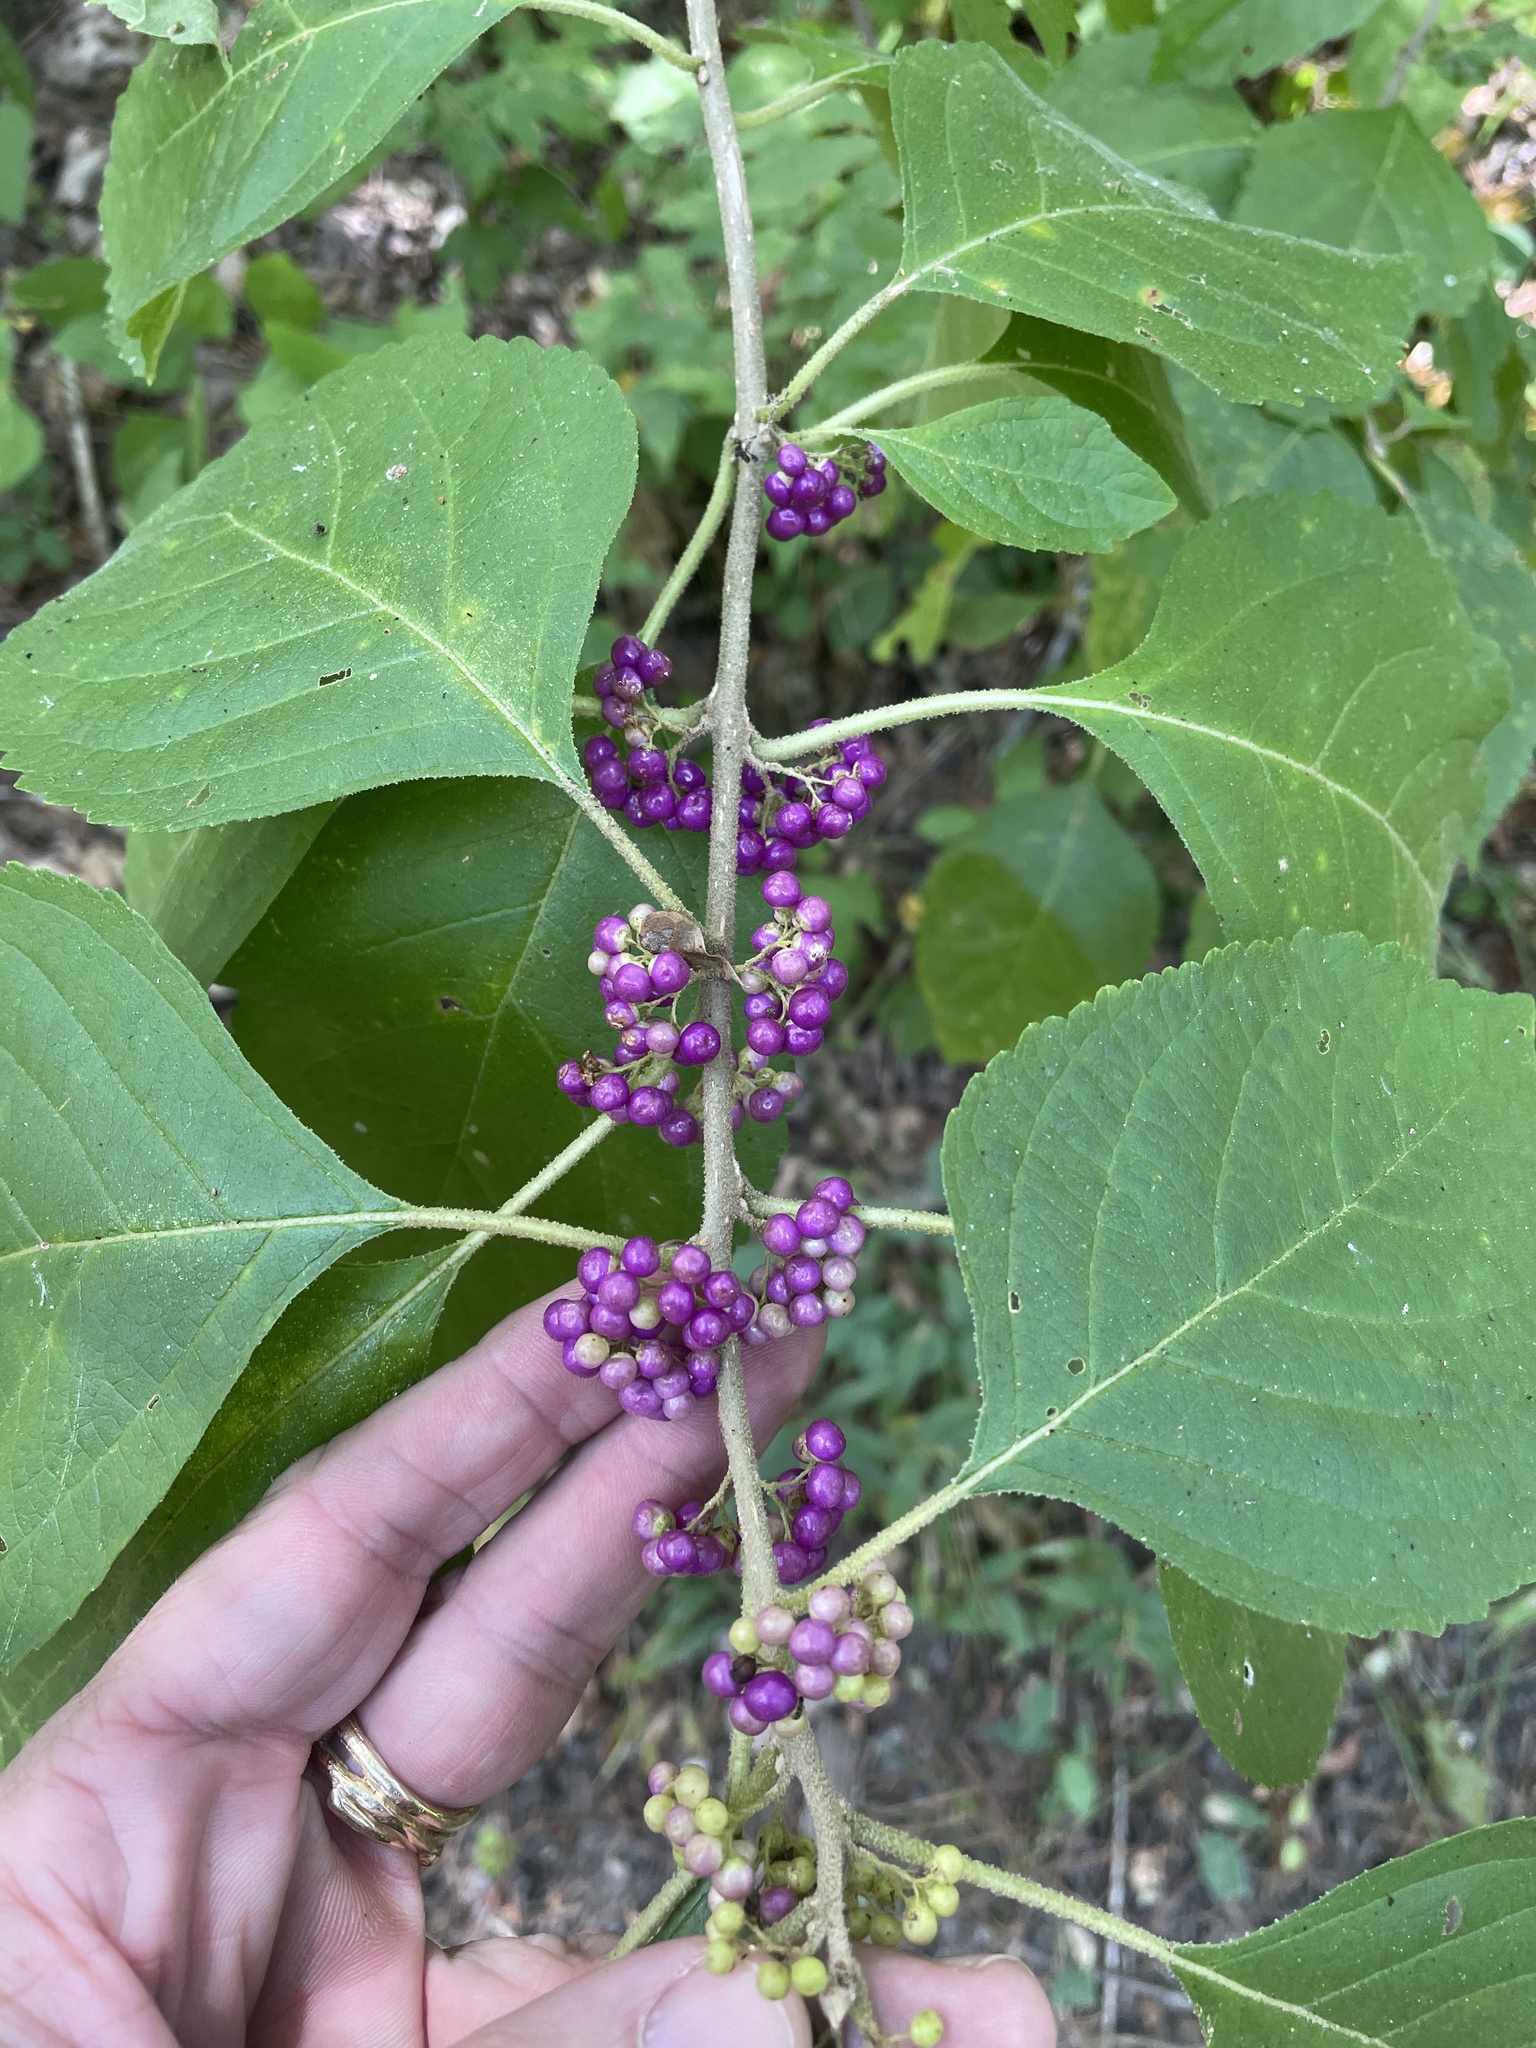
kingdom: Plantae
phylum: Tracheophyta
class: Magnoliopsida
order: Lamiales
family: Lamiaceae
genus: Callicarpa
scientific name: Callicarpa americana
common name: American beautyberry
